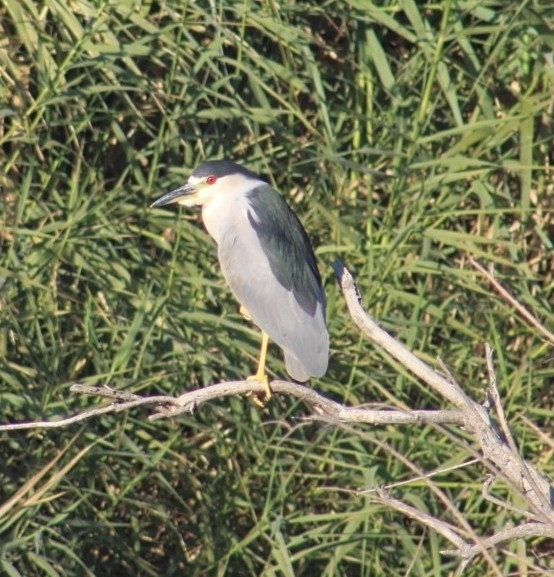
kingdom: Animalia
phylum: Chordata
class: Aves
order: Pelecaniformes
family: Ardeidae
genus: Nycticorax
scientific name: Nycticorax nycticorax
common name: Black-crowned night heron
